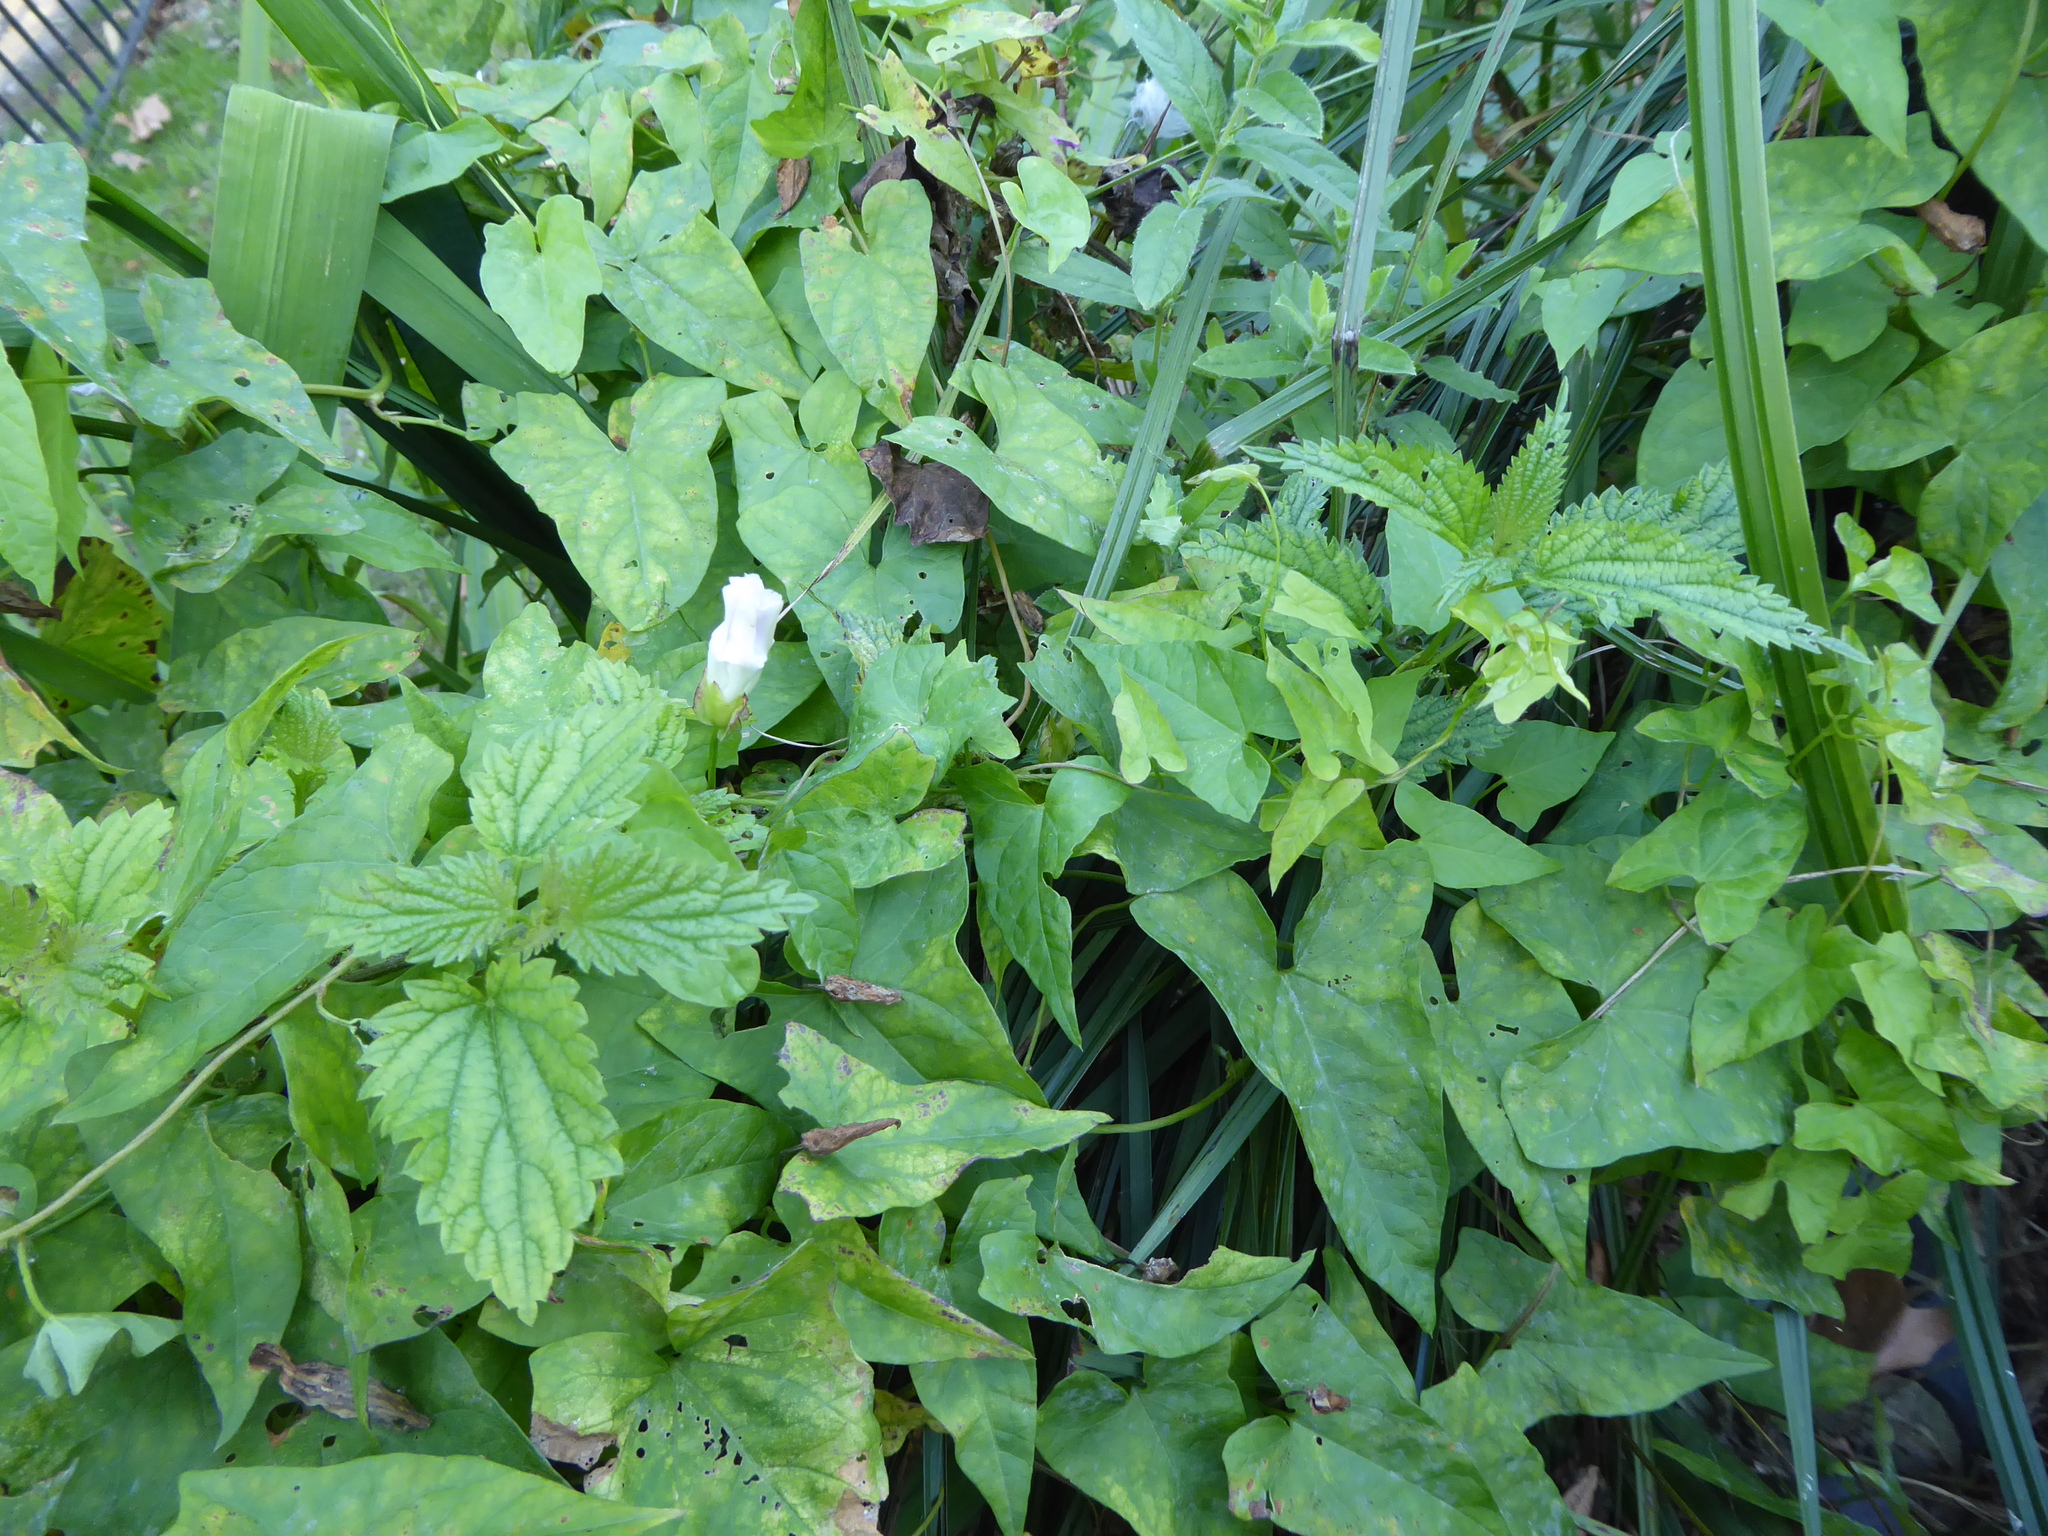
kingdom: Plantae
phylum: Tracheophyta
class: Magnoliopsida
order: Solanales
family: Convolvulaceae
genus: Calystegia
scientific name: Calystegia sepium
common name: Hedge bindweed
